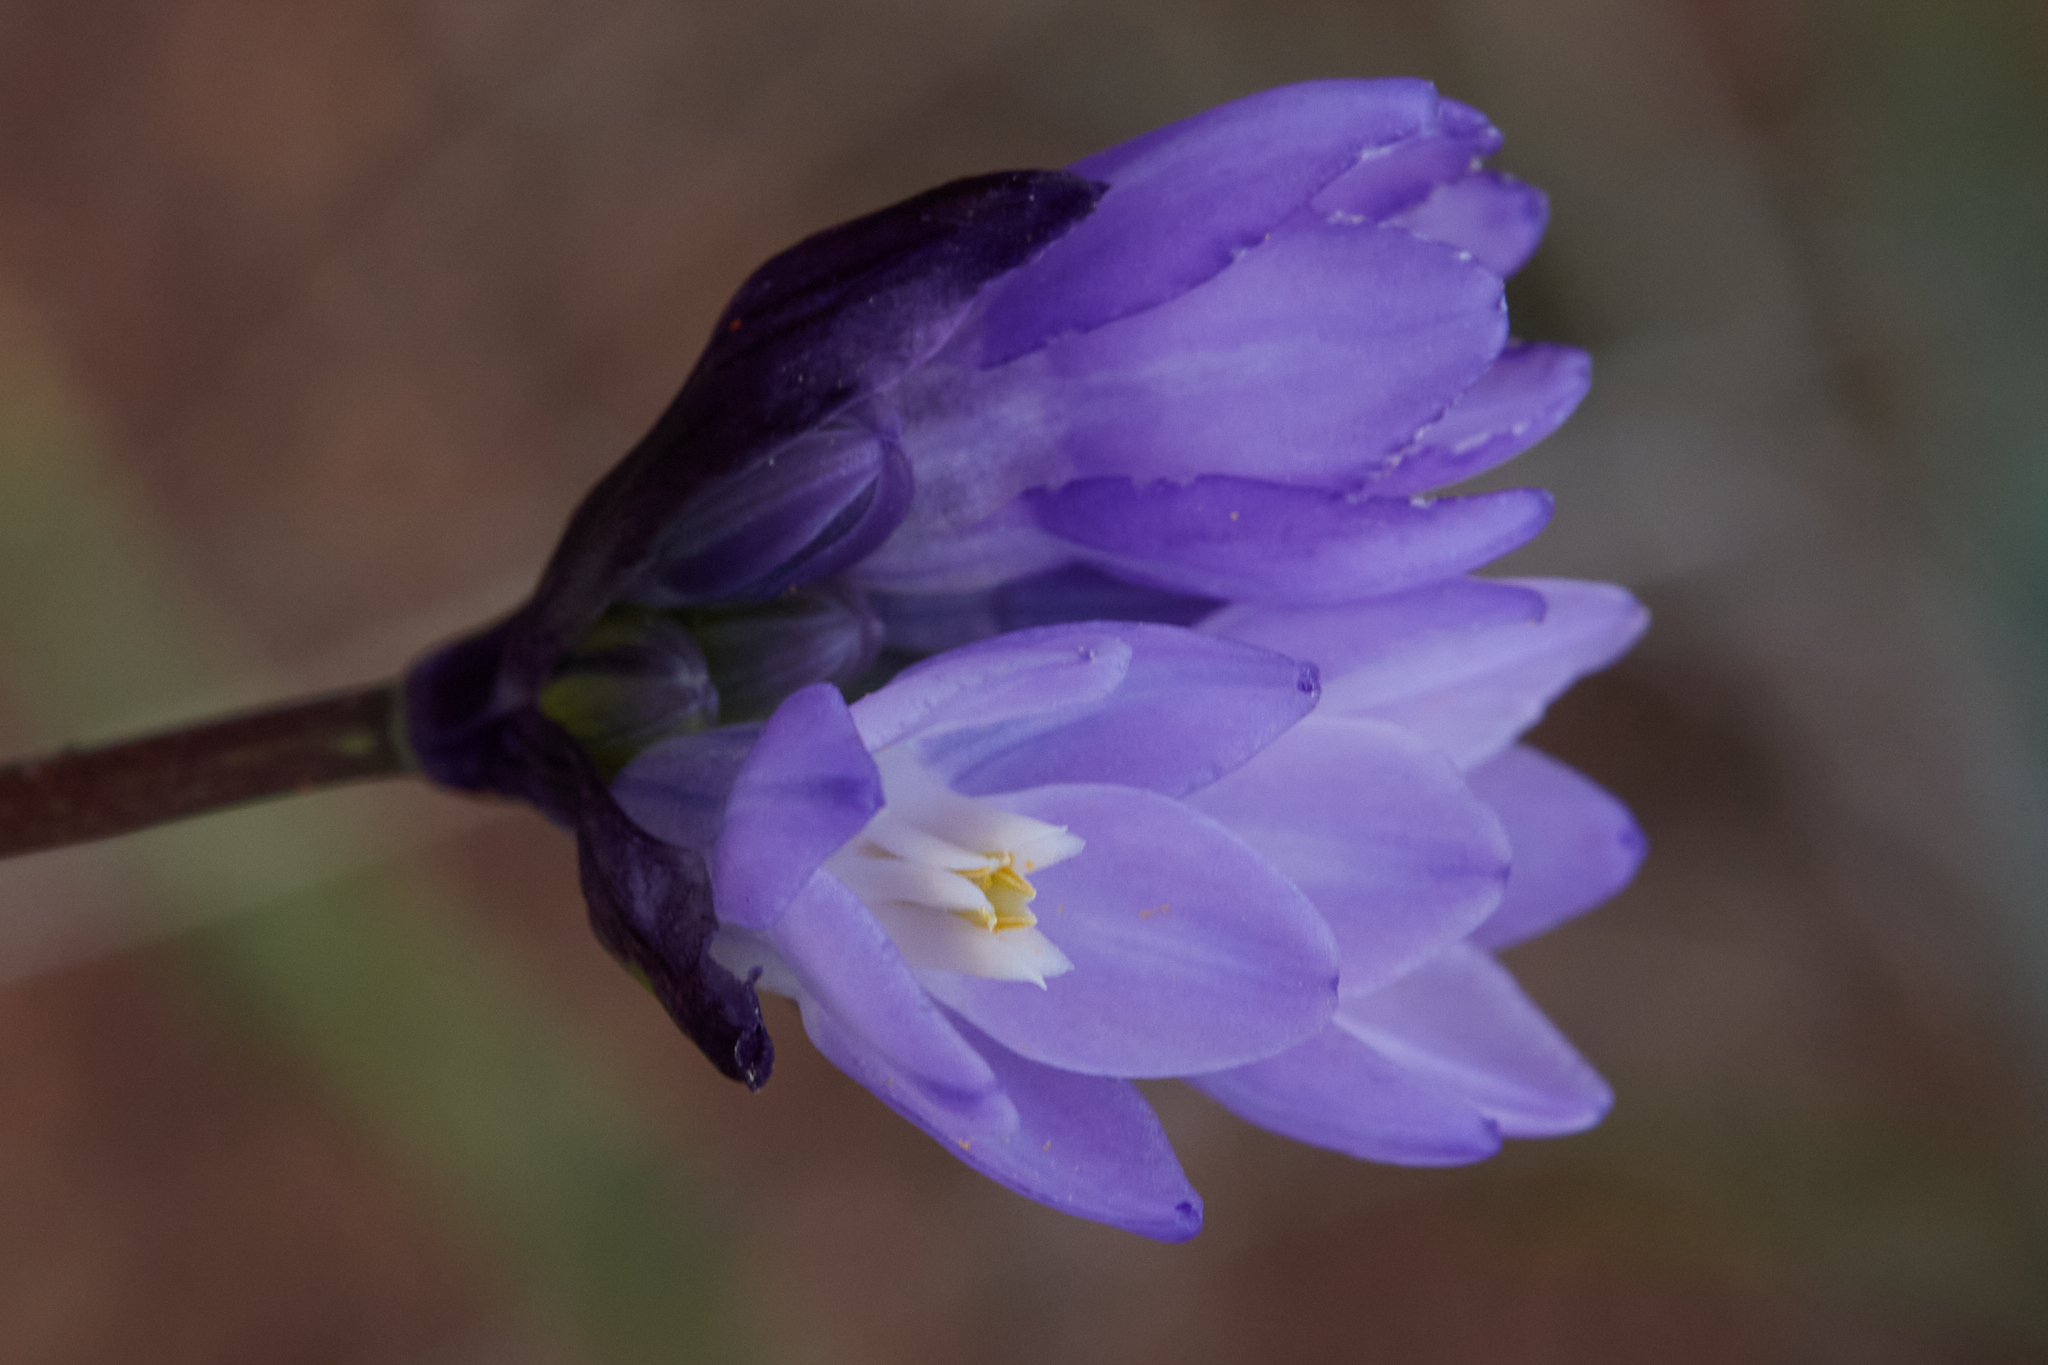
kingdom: Plantae
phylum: Tracheophyta
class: Liliopsida
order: Asparagales
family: Asparagaceae
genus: Dipterostemon
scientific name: Dipterostemon capitatus
